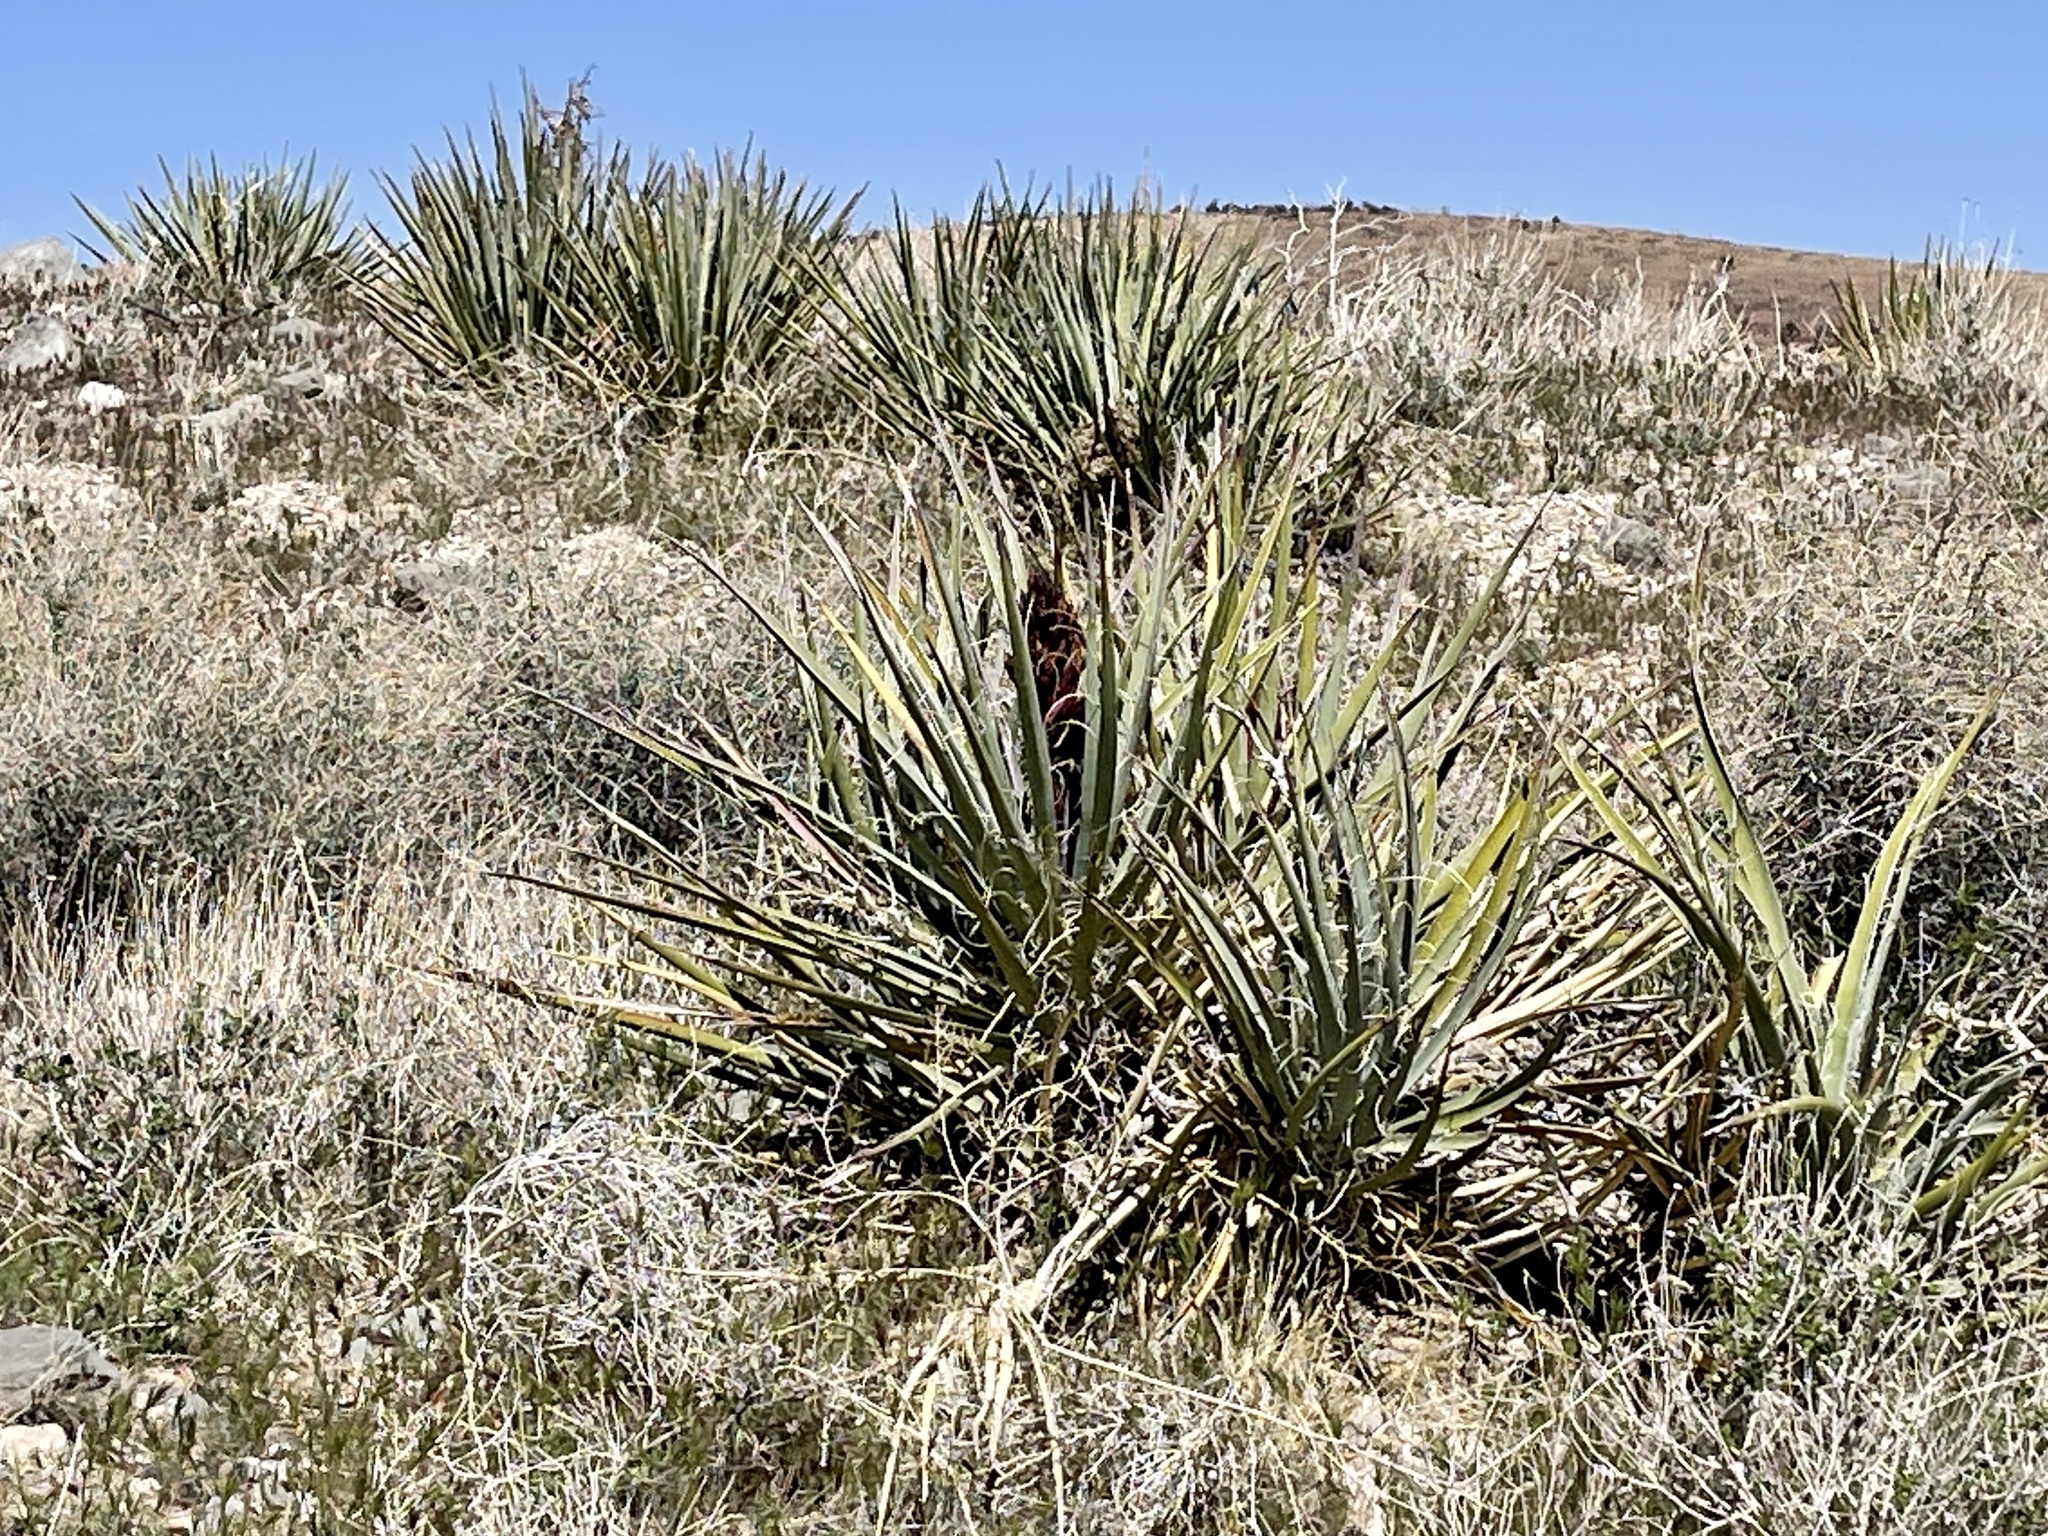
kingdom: Plantae
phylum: Tracheophyta
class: Liliopsida
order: Asparagales
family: Asparagaceae
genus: Yucca
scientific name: Yucca baccata
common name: Banana yucca
